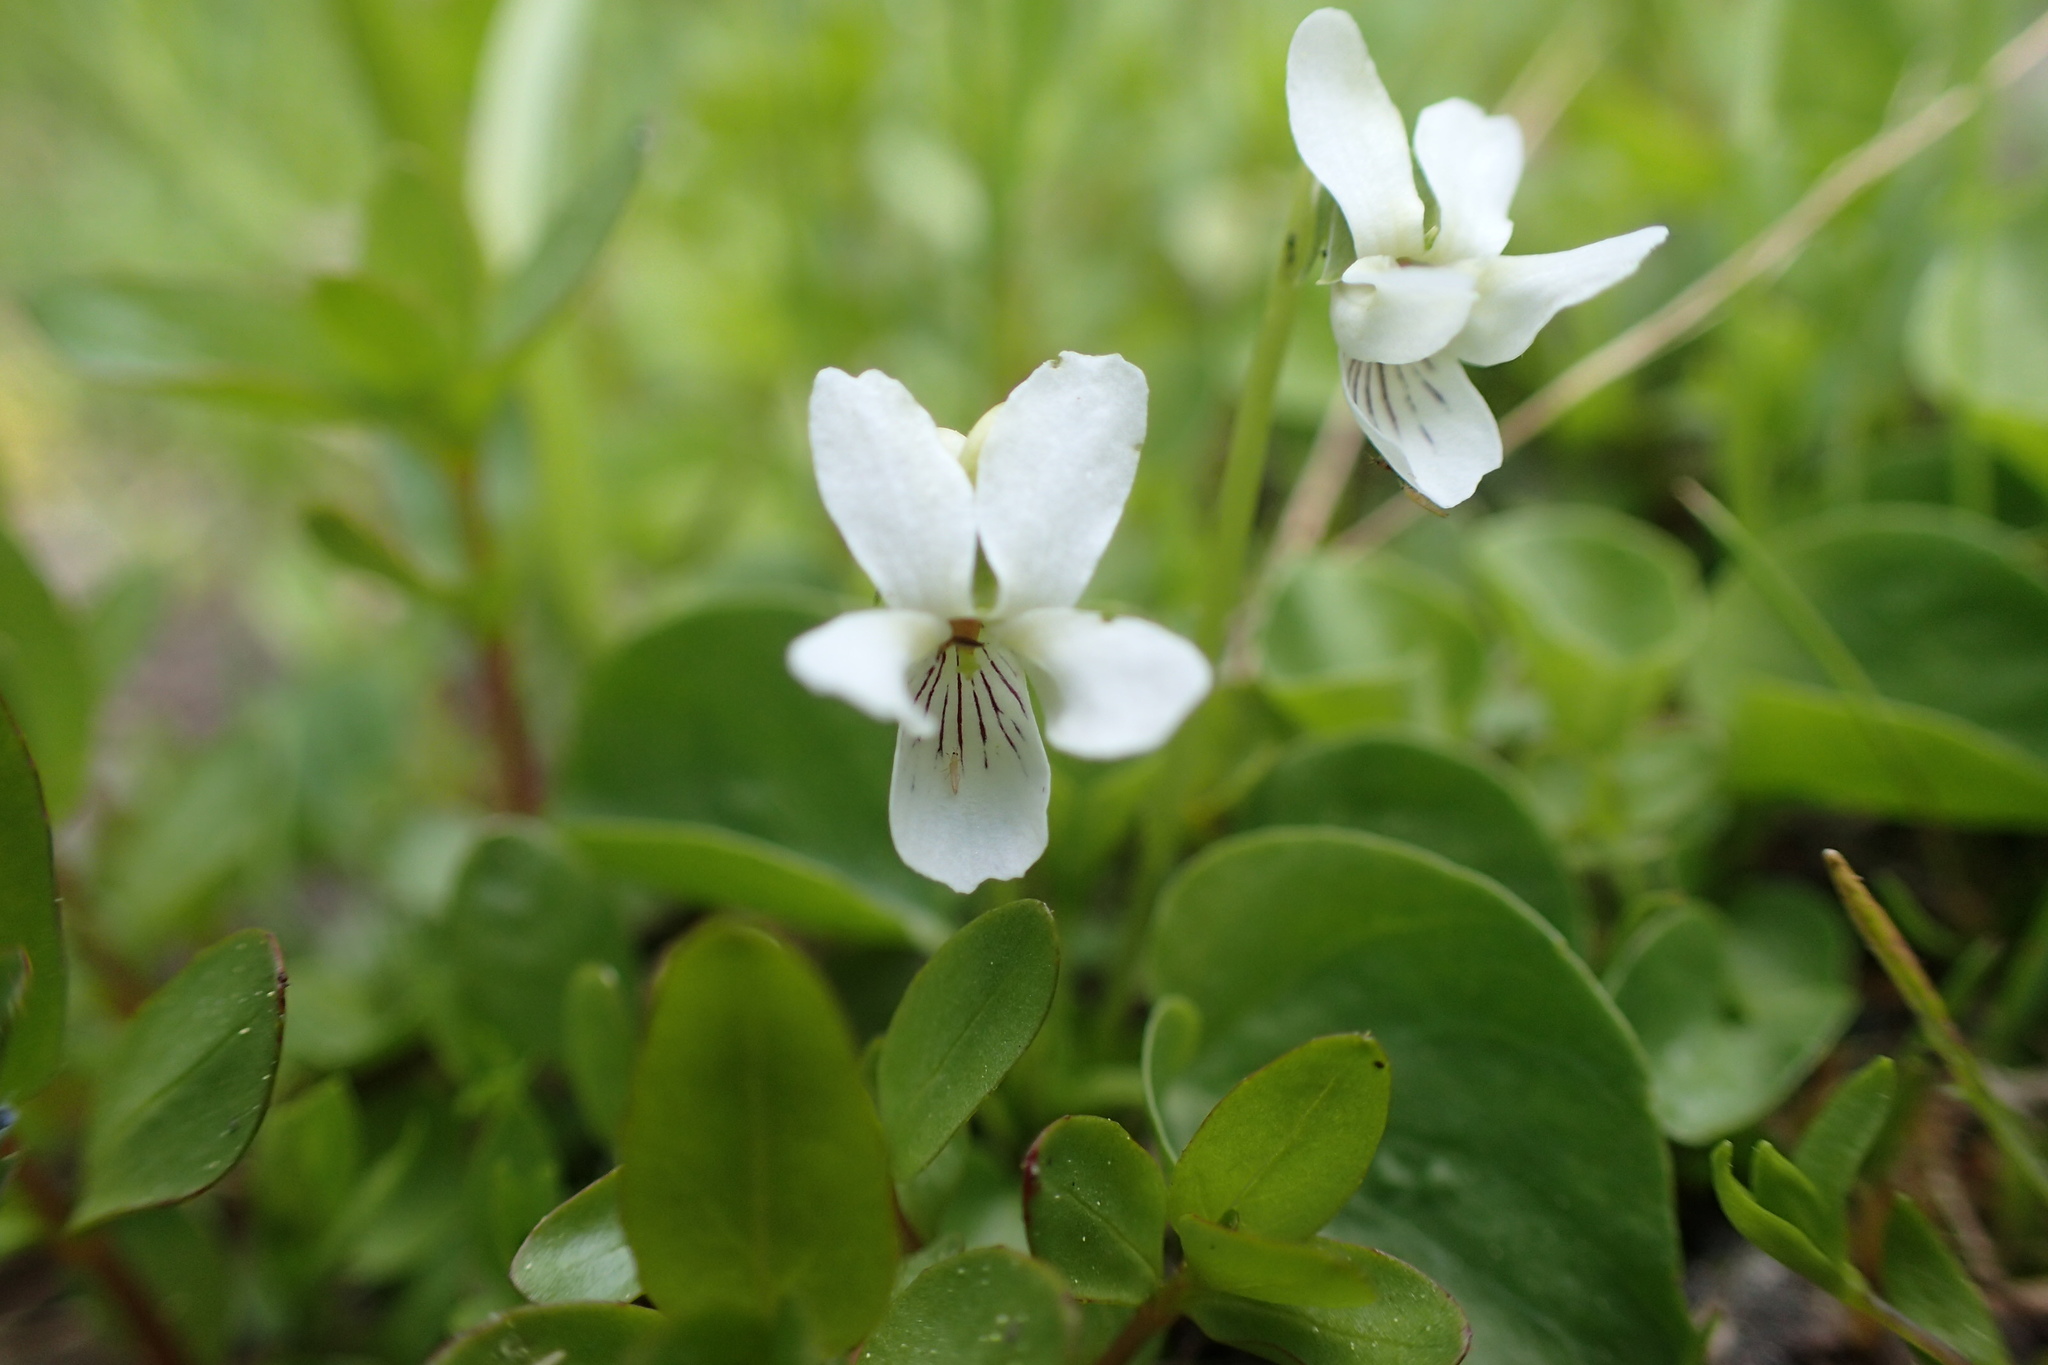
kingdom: Plantae
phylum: Tracheophyta
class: Magnoliopsida
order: Malpighiales
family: Violaceae
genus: Viola
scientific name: Viola macloskeyi
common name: Macloskey's violet
